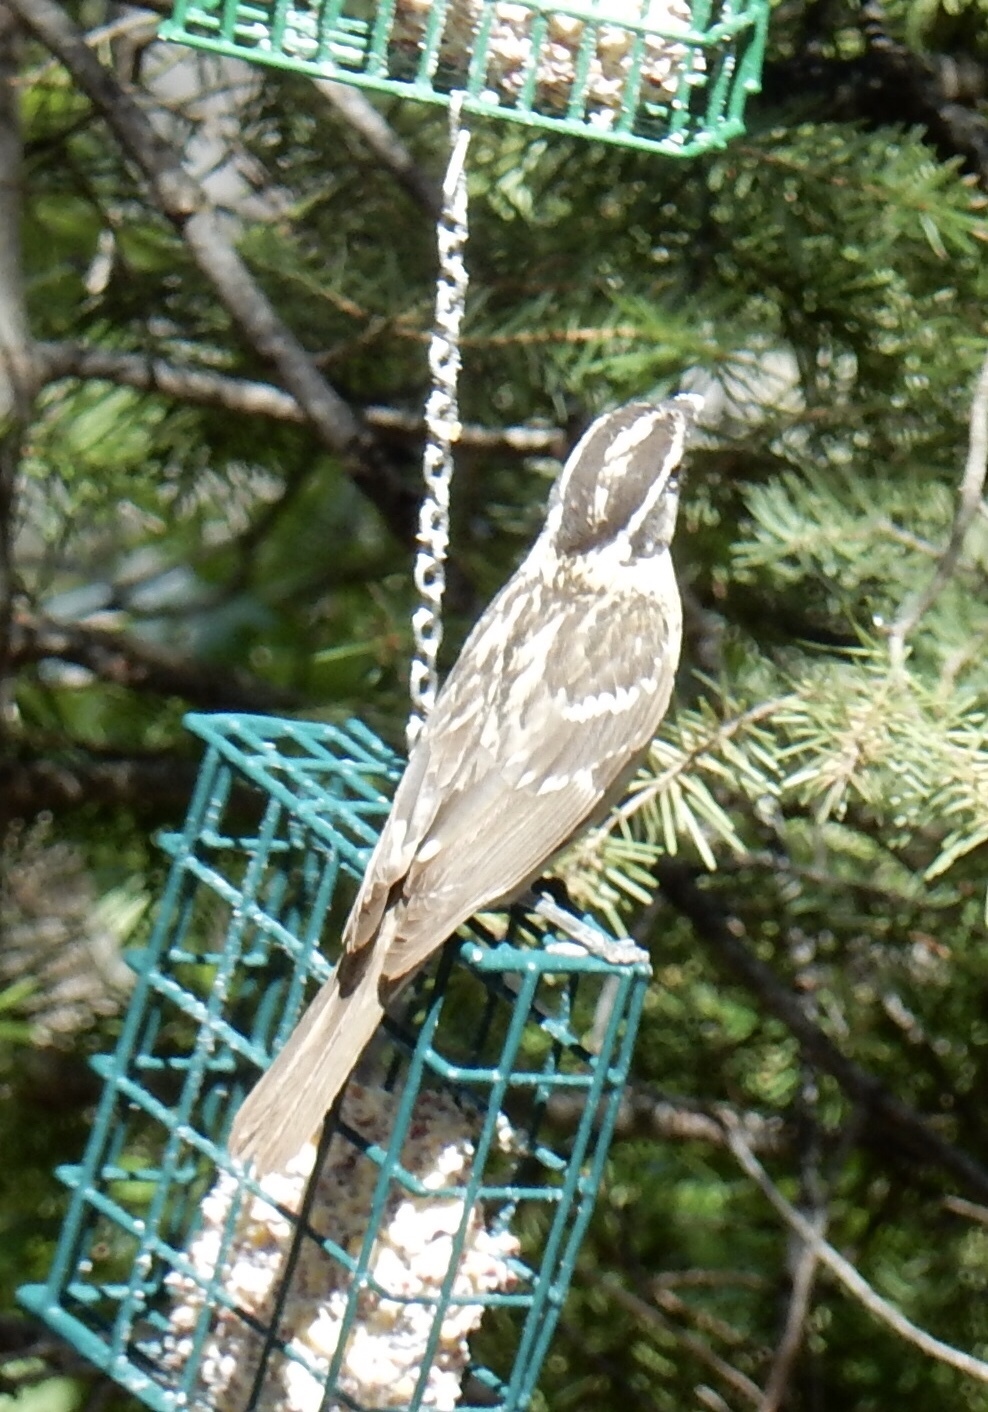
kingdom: Animalia
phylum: Chordata
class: Aves
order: Passeriformes
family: Cardinalidae
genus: Pheucticus
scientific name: Pheucticus melanocephalus
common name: Black-headed grosbeak
